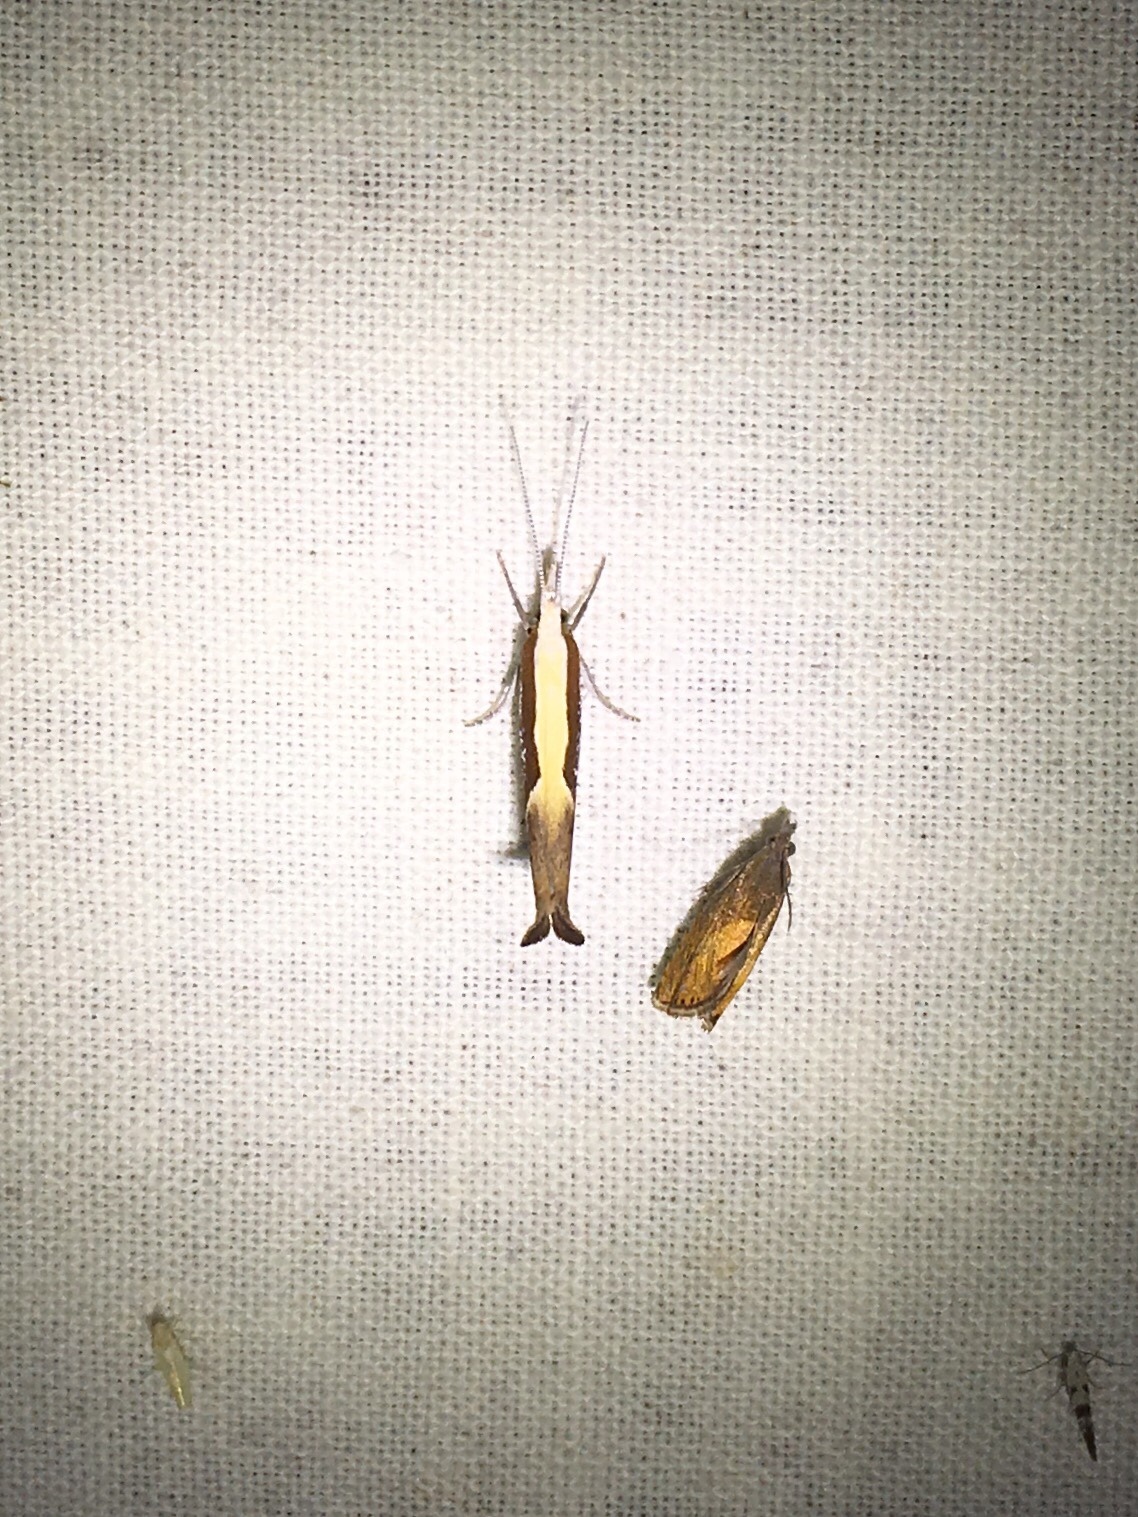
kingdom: Animalia
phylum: Arthropoda
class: Insecta
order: Lepidoptera
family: Ypsolophidae
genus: Ypsolopha
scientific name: Ypsolopha dentella
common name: Honeysuckle moth
